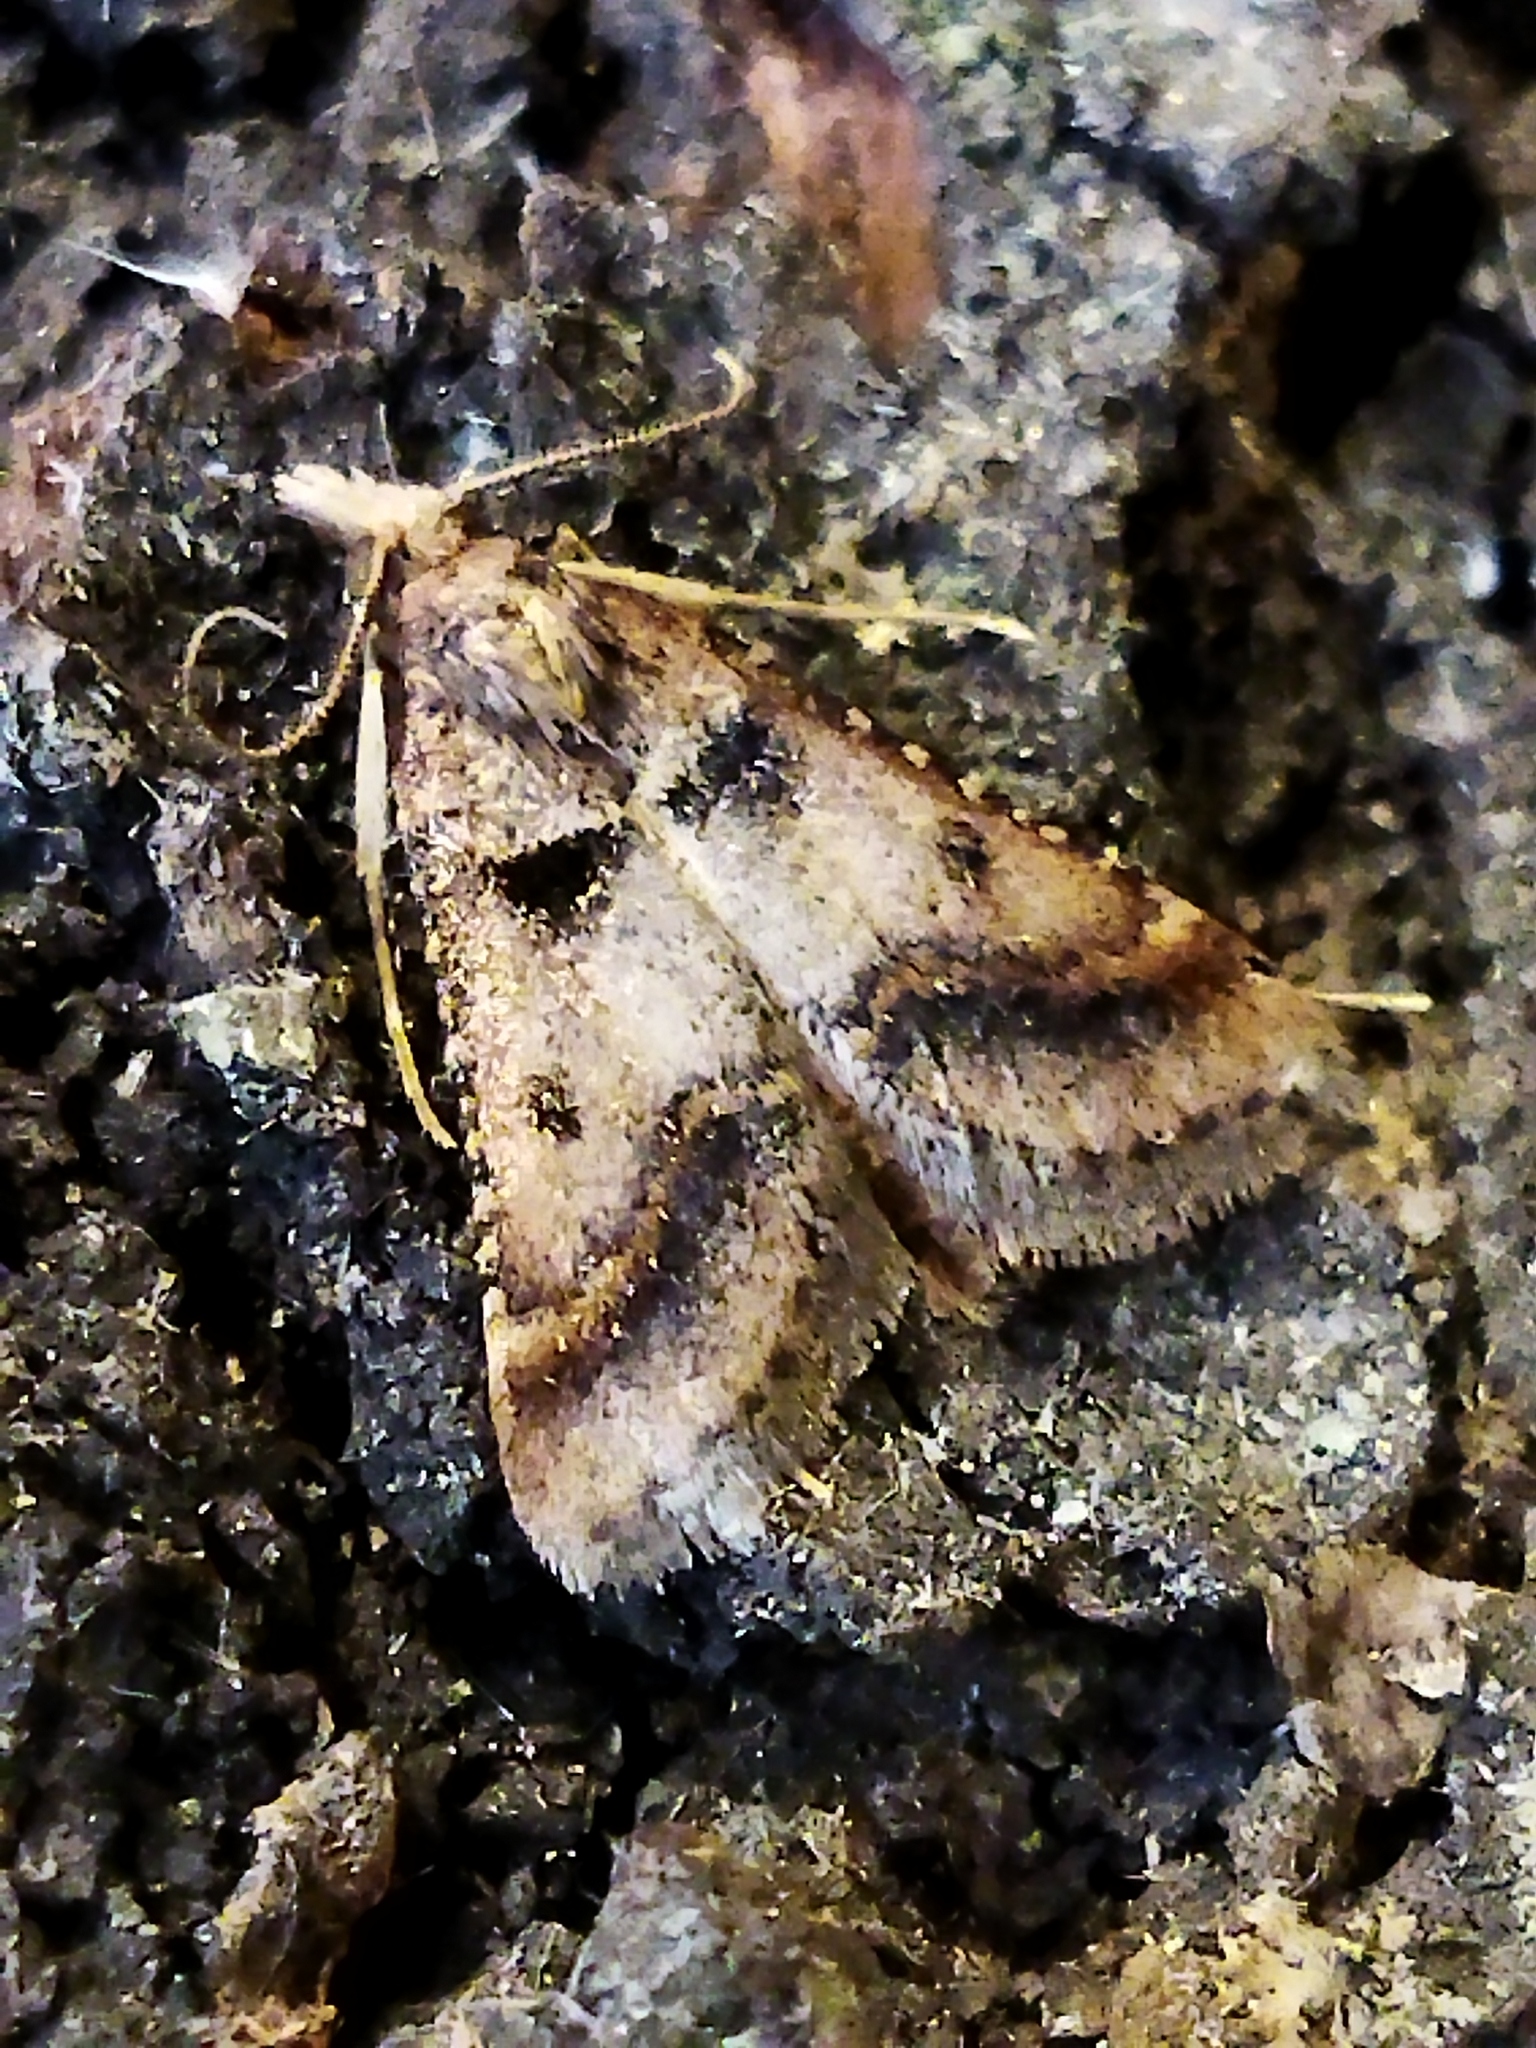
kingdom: Animalia
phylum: Arthropoda
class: Insecta
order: Lepidoptera
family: Pyralidae
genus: Stemmatophora
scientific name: Stemmatophora brunnealis
